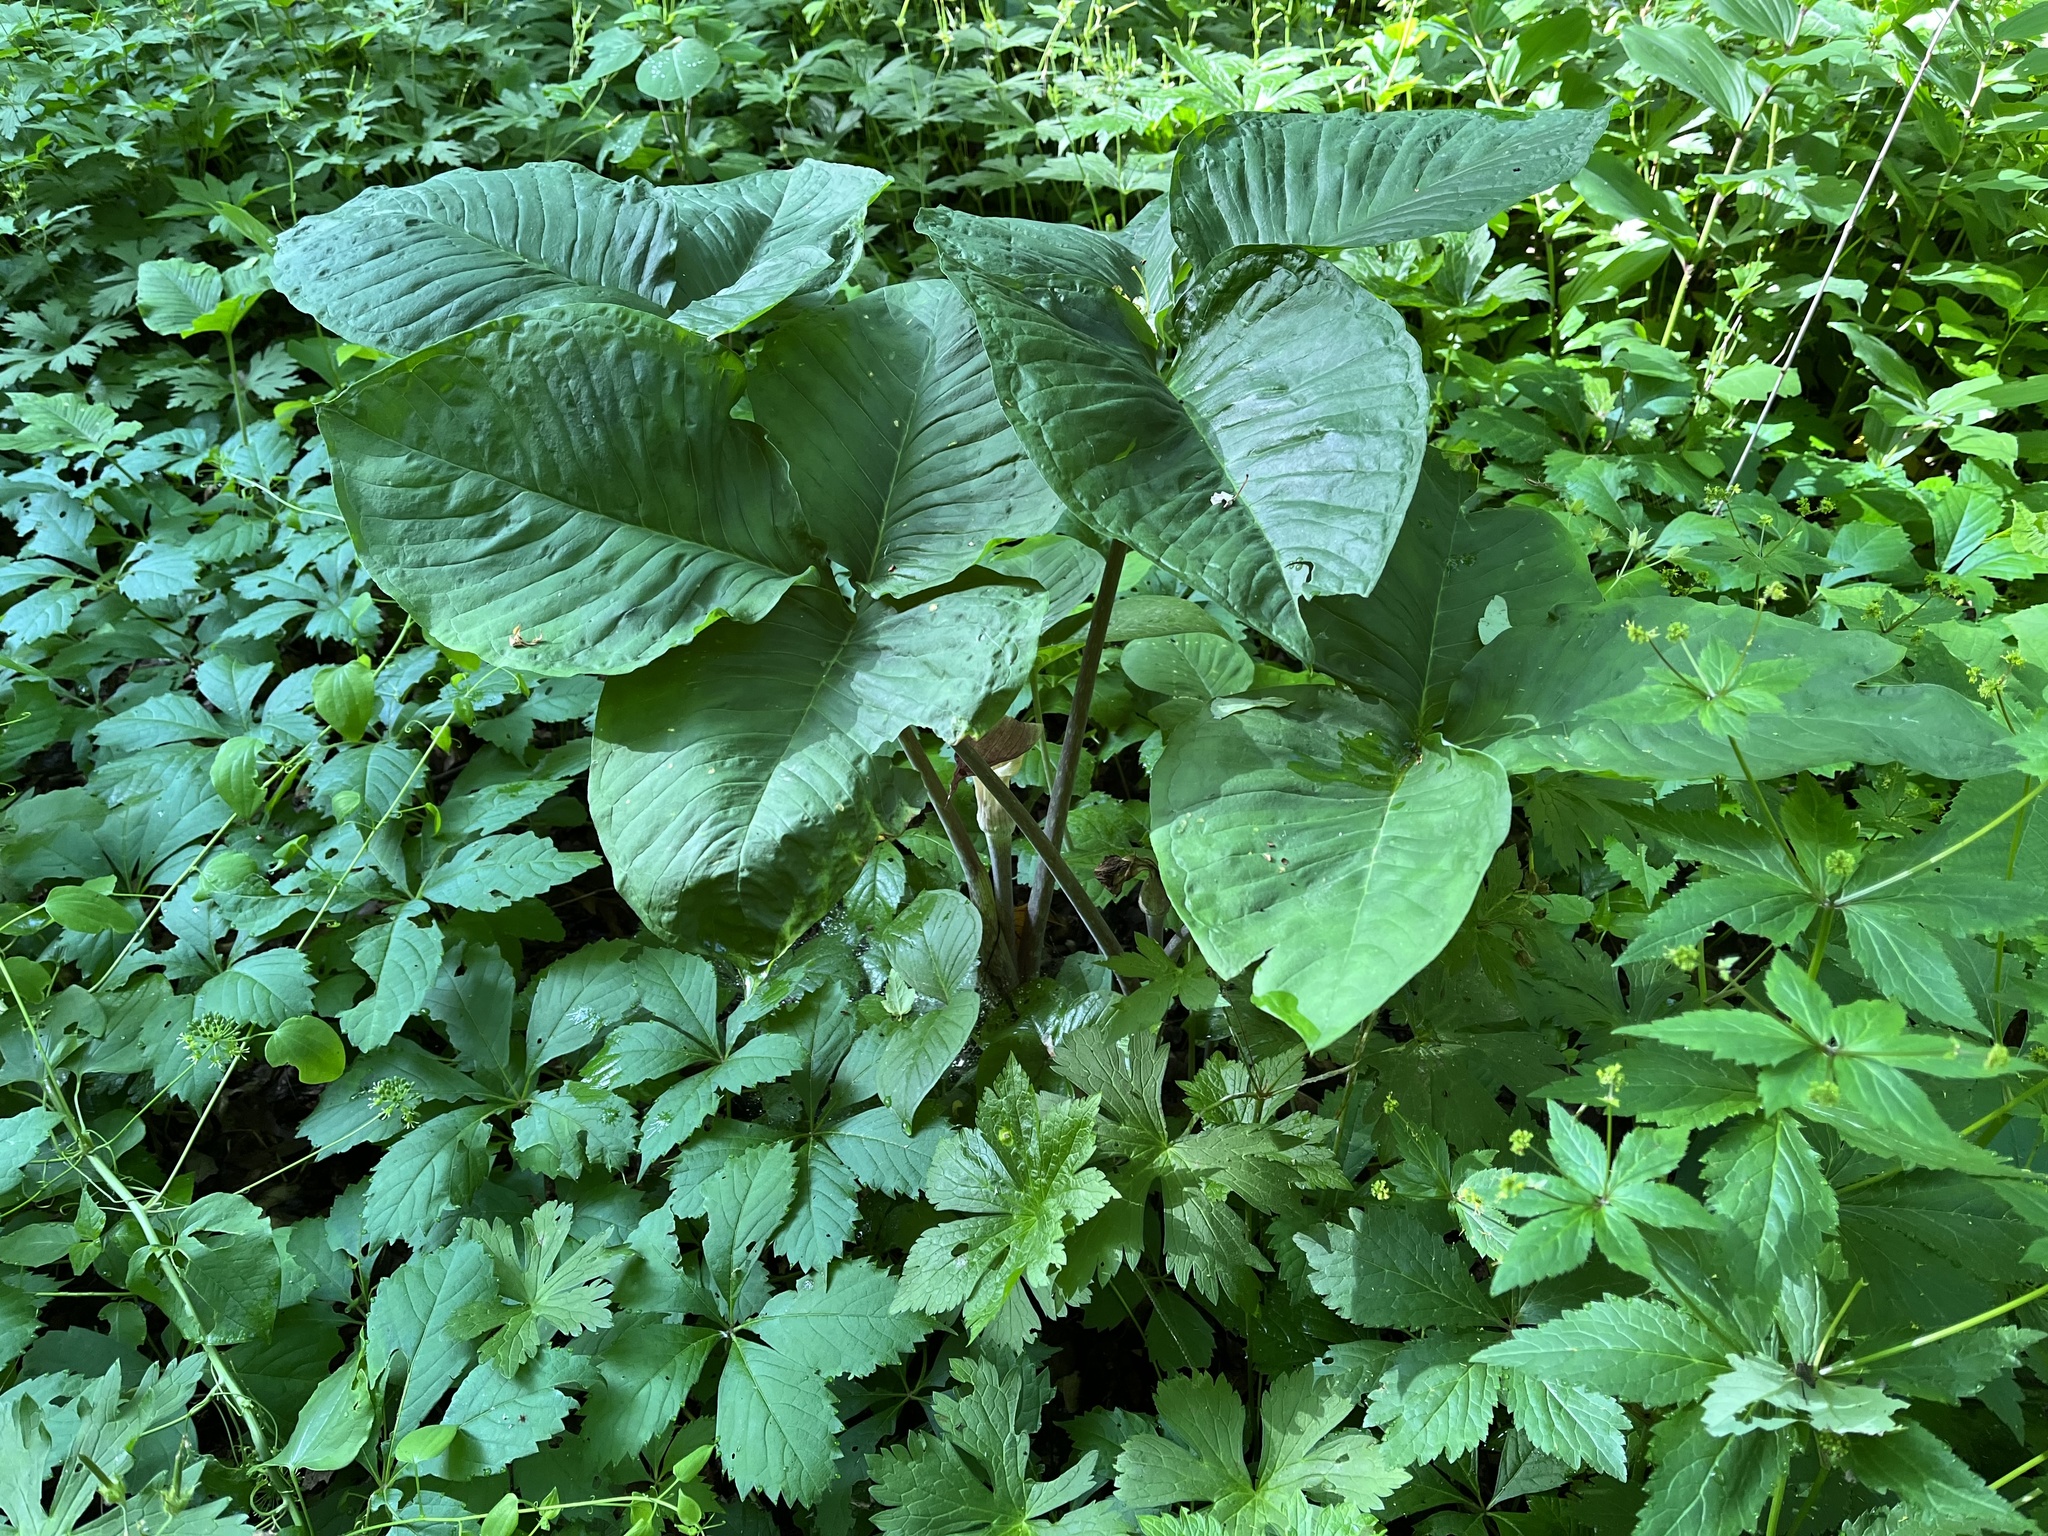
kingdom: Plantae
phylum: Tracheophyta
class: Liliopsida
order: Alismatales
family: Araceae
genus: Arisaema
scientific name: Arisaema triphyllum
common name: Jack-in-the-pulpit
